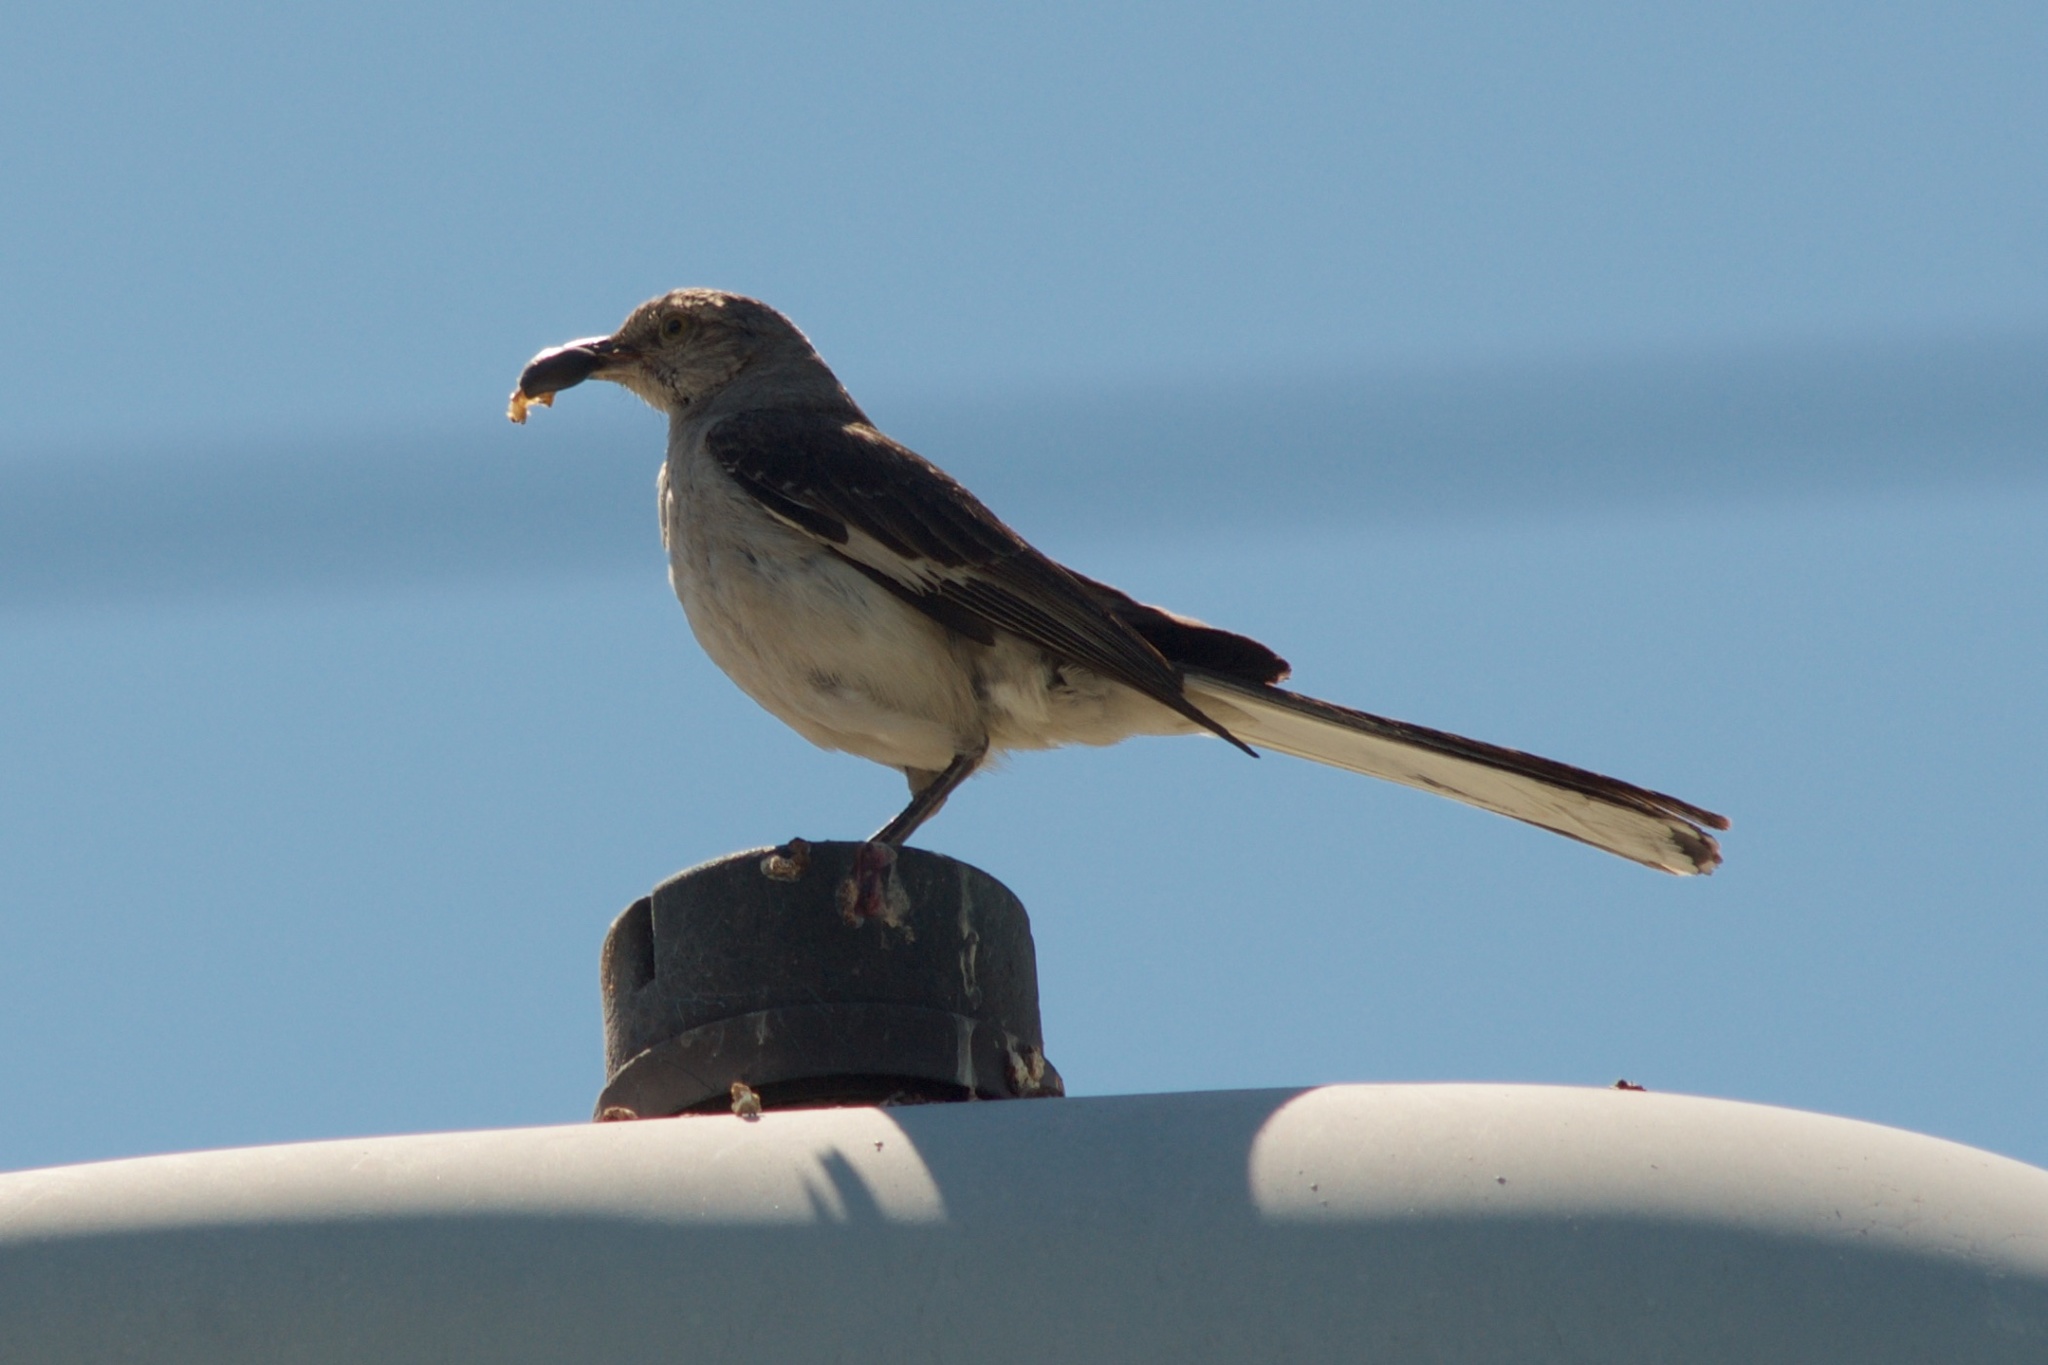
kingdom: Animalia
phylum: Chordata
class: Aves
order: Passeriformes
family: Mimidae
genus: Mimus
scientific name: Mimus polyglottos
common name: Northern mockingbird
